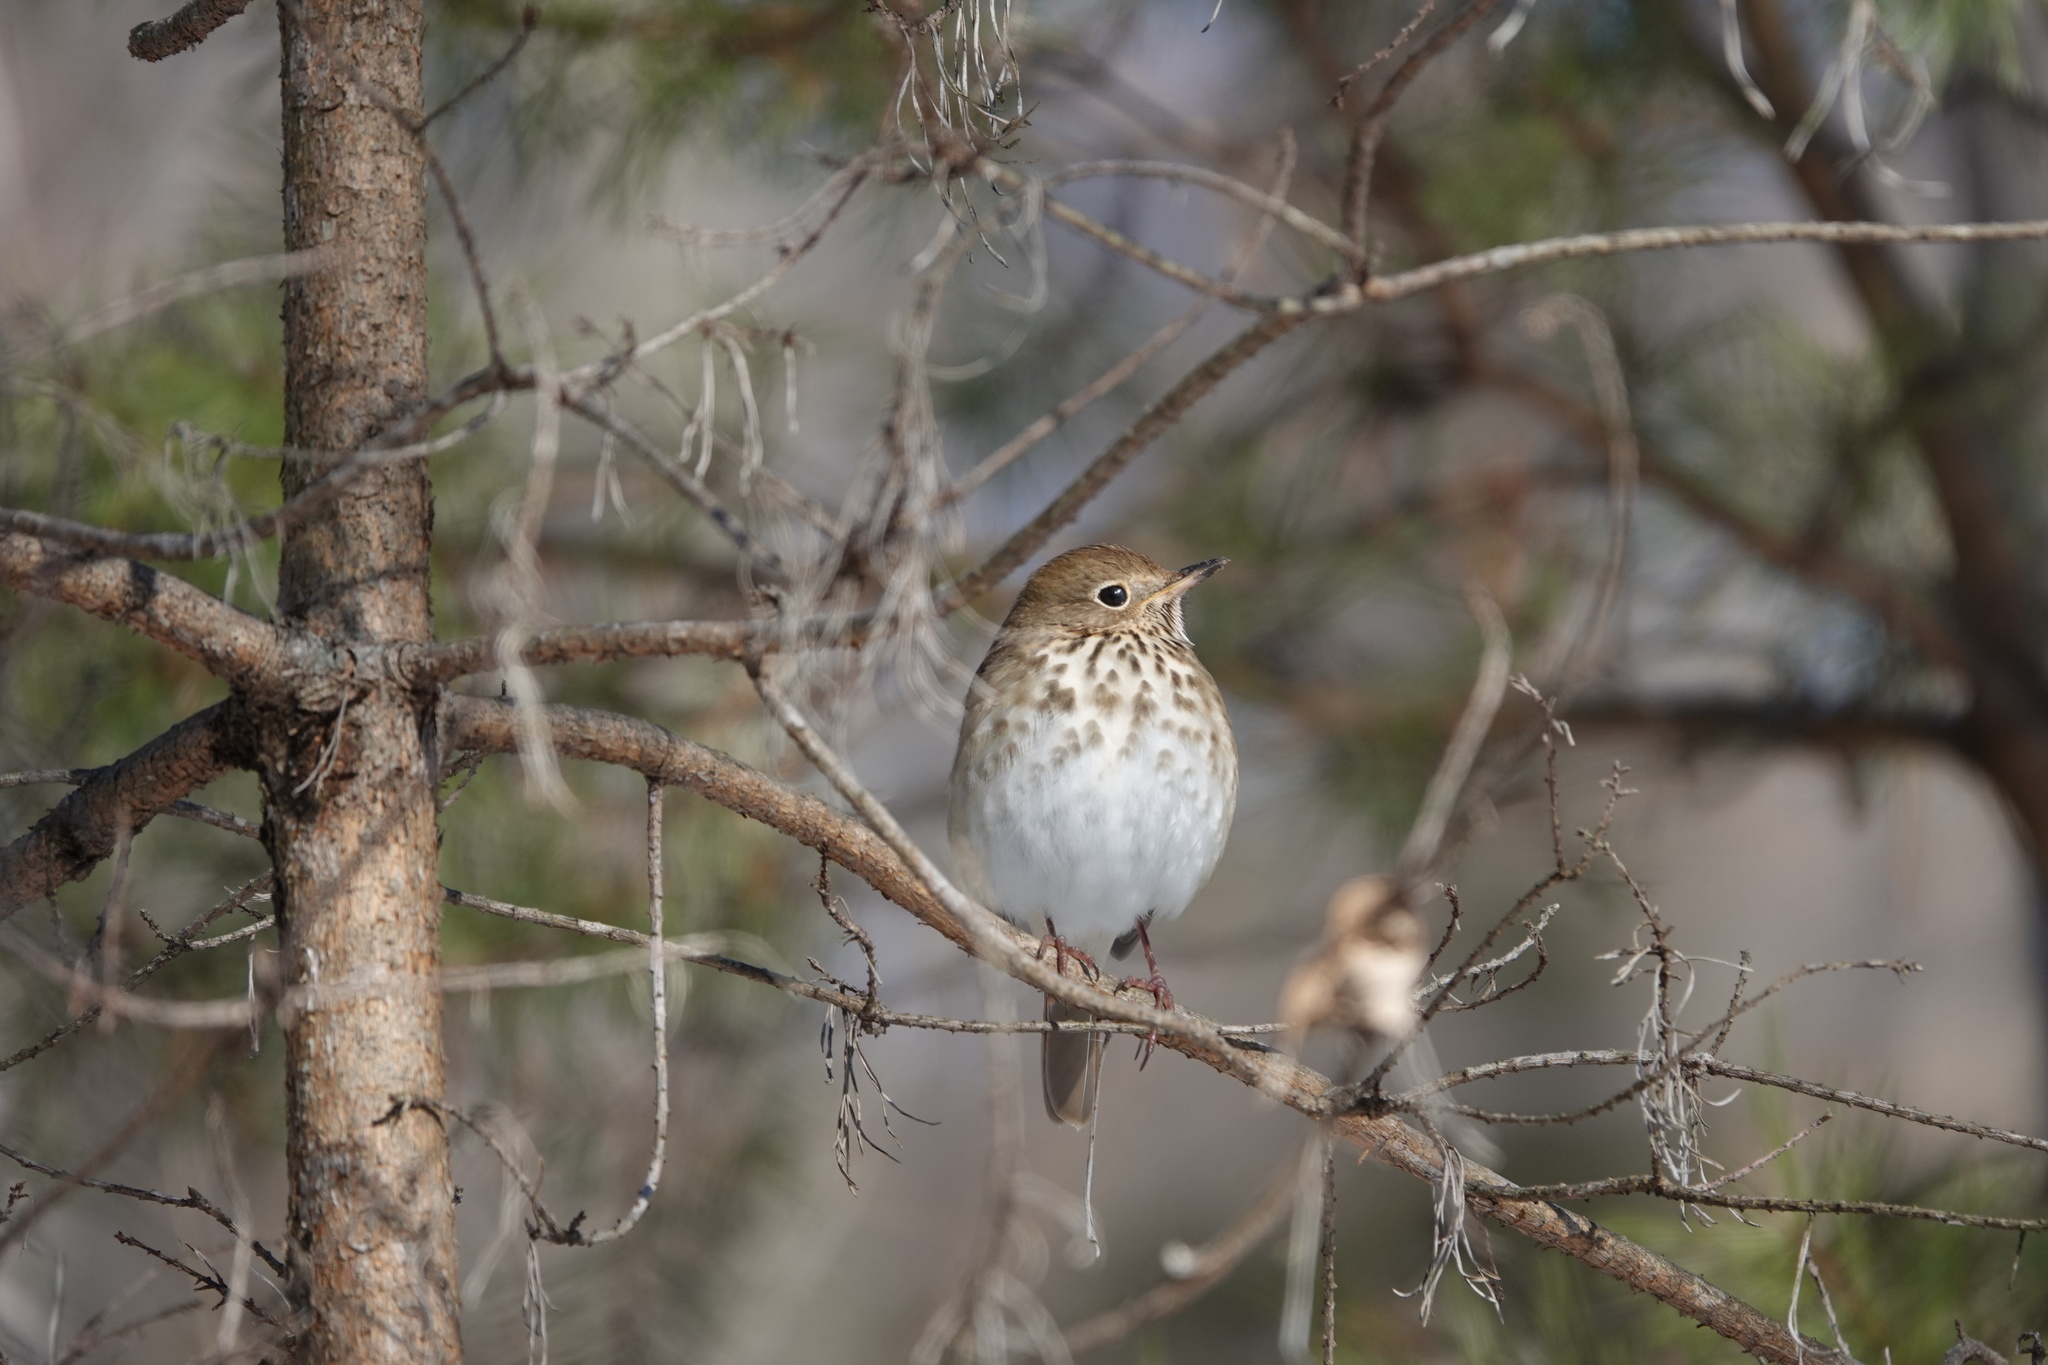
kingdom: Animalia
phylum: Chordata
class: Aves
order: Passeriformes
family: Turdidae
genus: Catharus
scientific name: Catharus guttatus
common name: Hermit thrush
